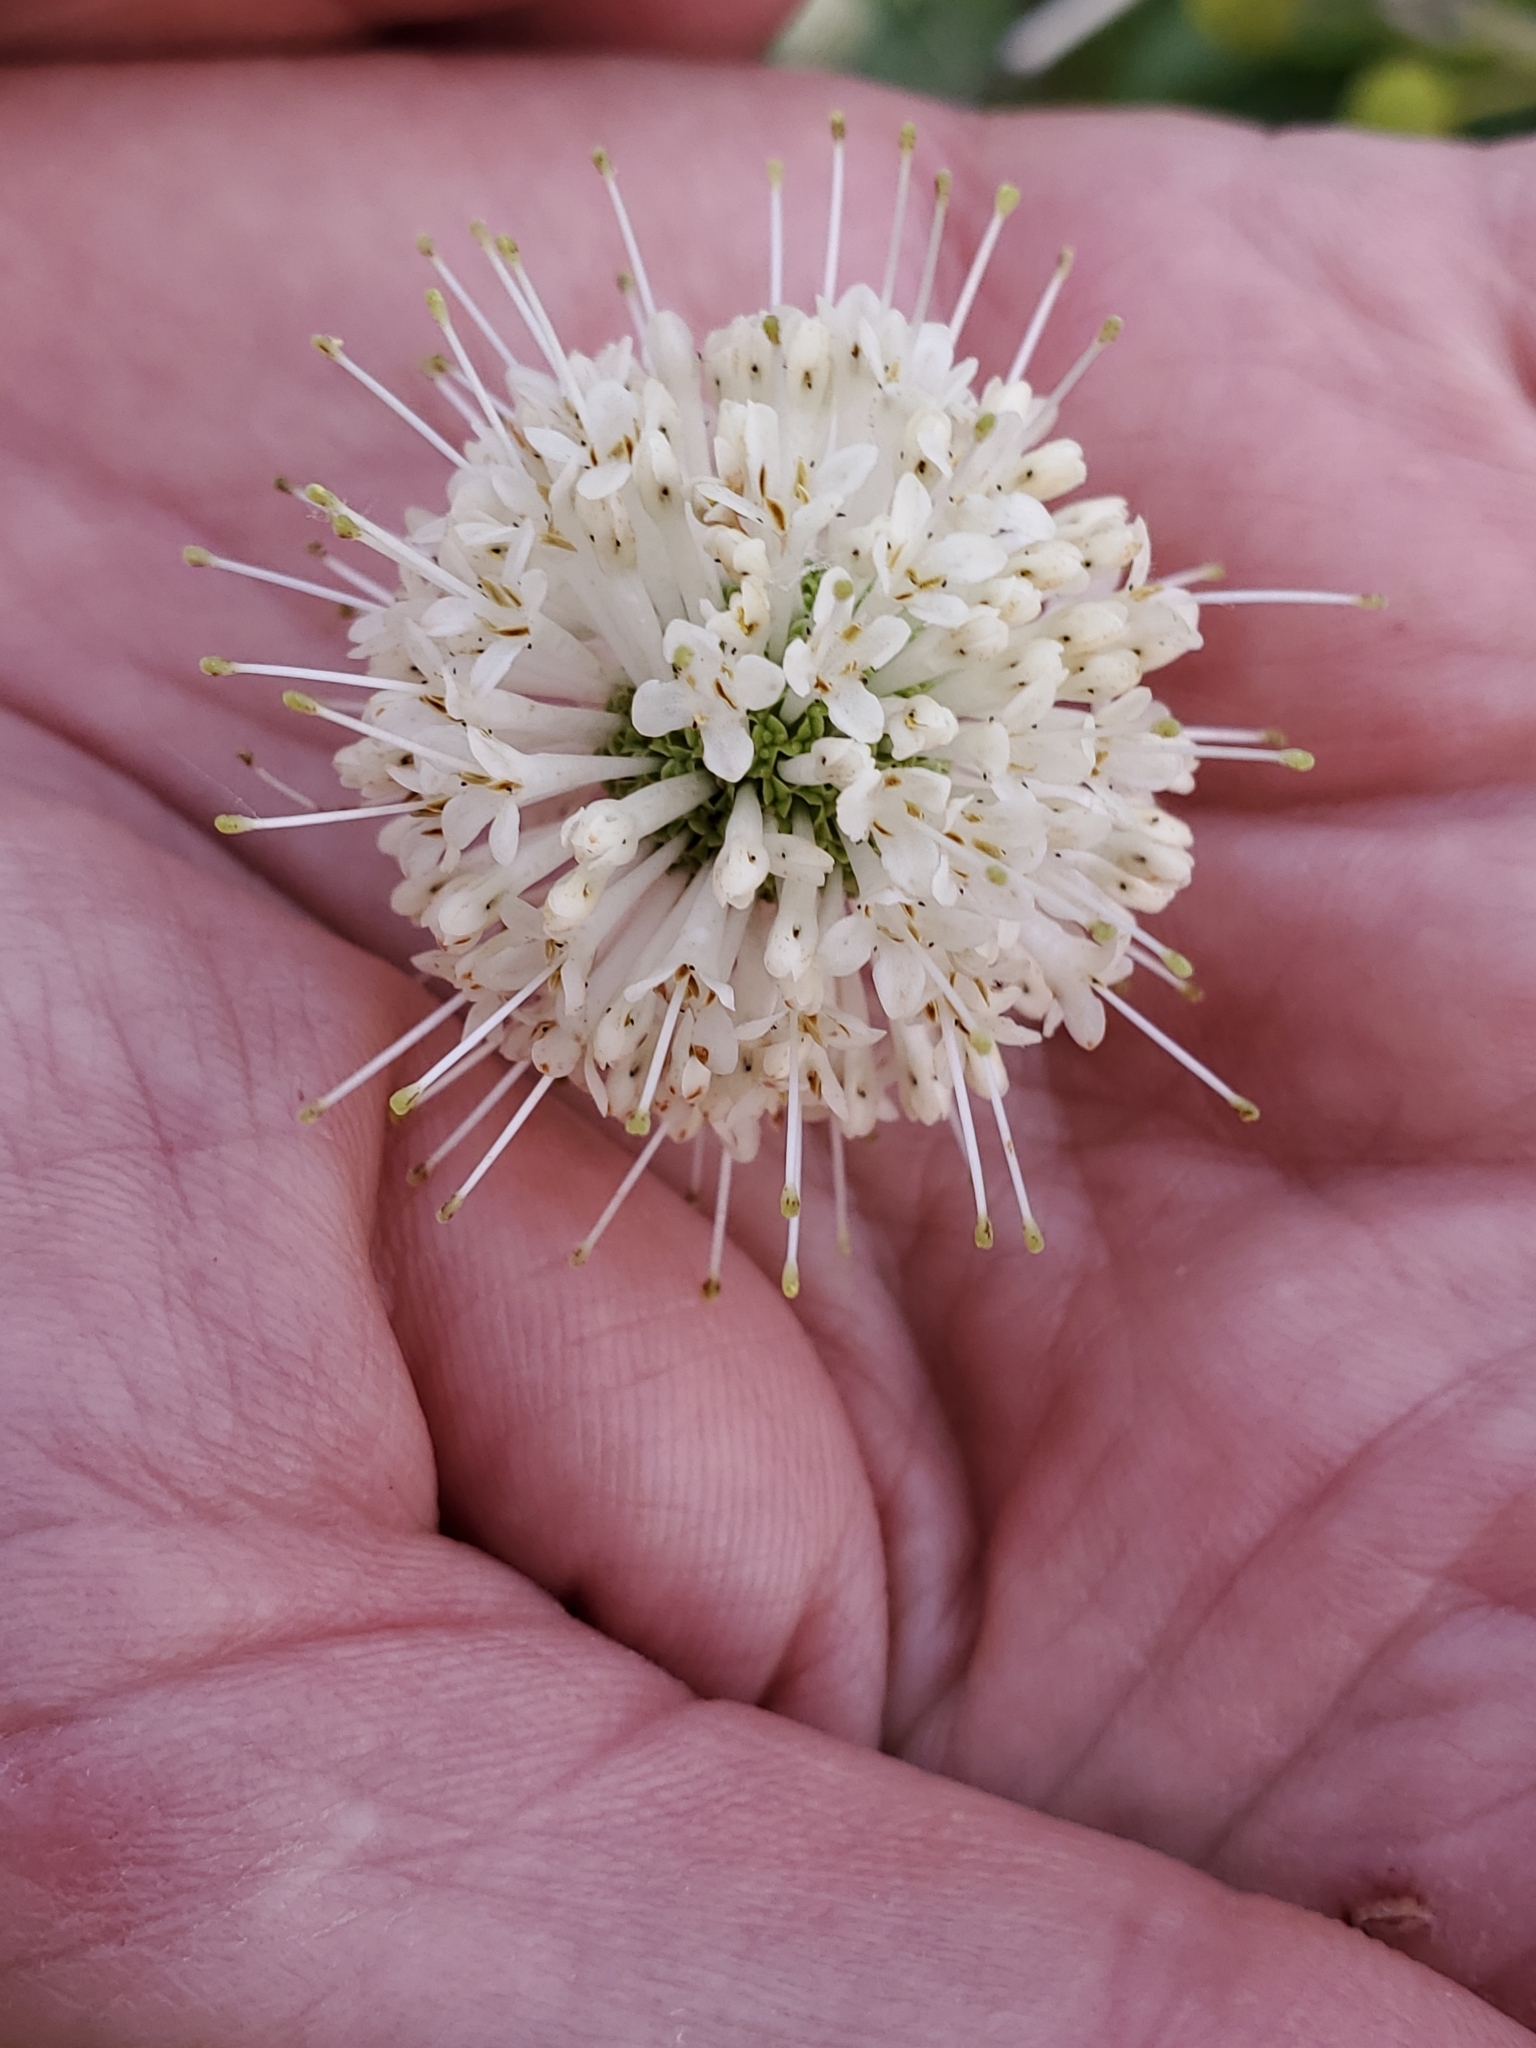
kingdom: Plantae
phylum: Tracheophyta
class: Magnoliopsida
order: Gentianales
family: Rubiaceae
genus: Cephalanthus
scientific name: Cephalanthus occidentalis
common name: Button-willow
